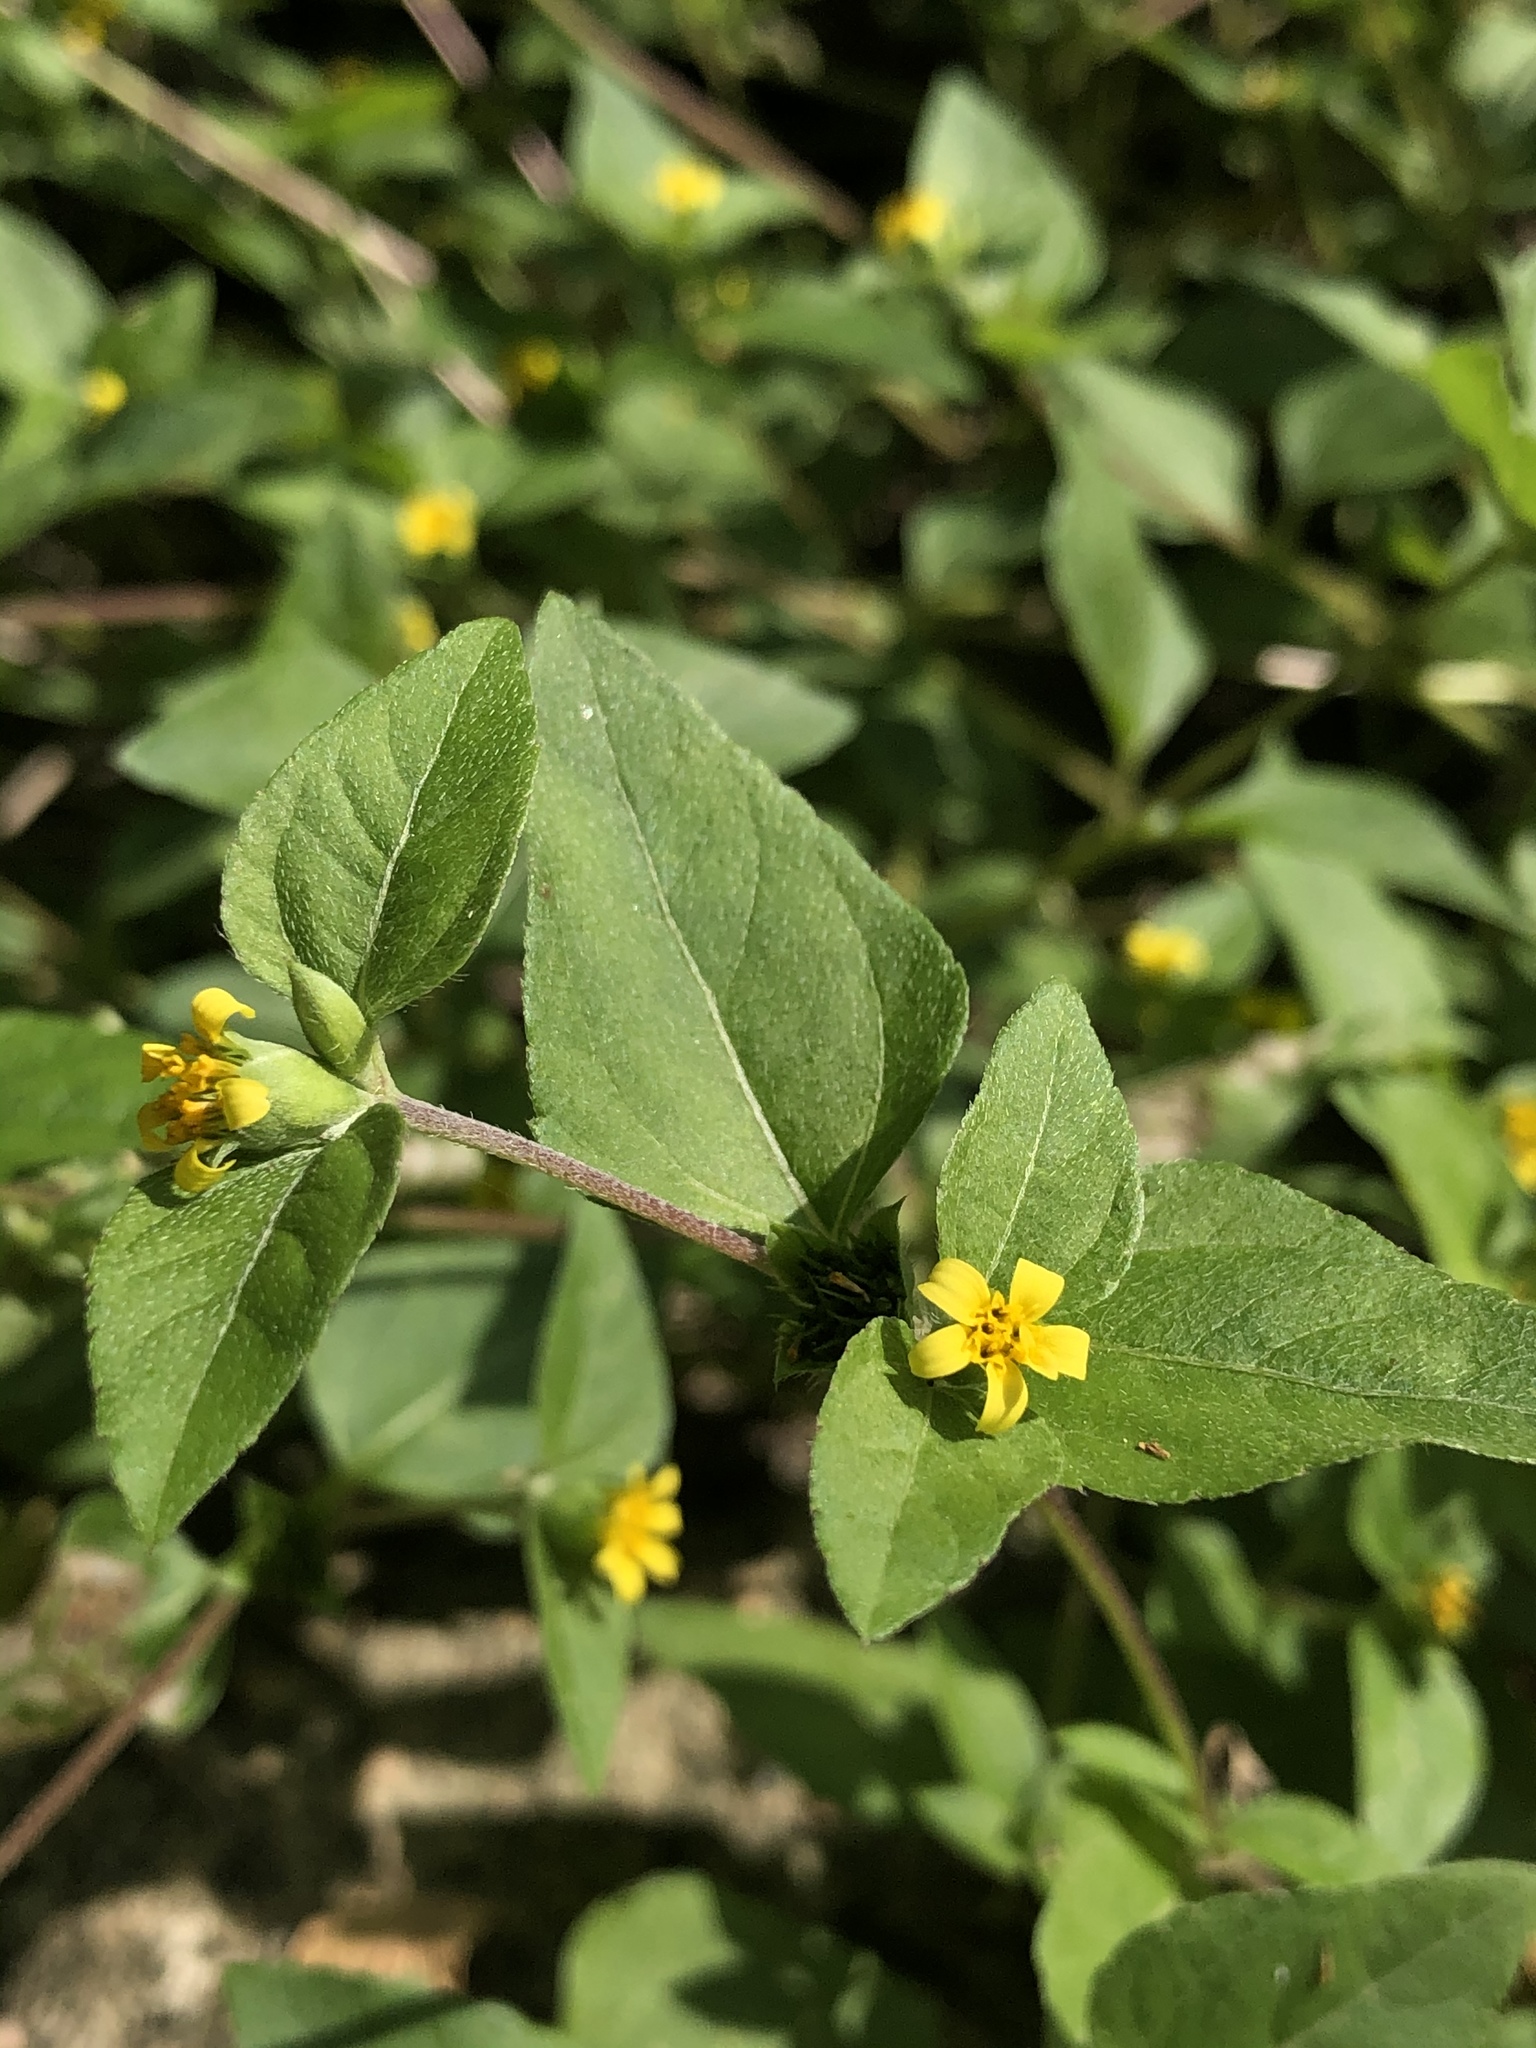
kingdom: Plantae
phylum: Tracheophyta
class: Magnoliopsida
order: Asterales
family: Asteraceae
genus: Calyptocarpus
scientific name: Calyptocarpus vialis
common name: Straggler daisy
